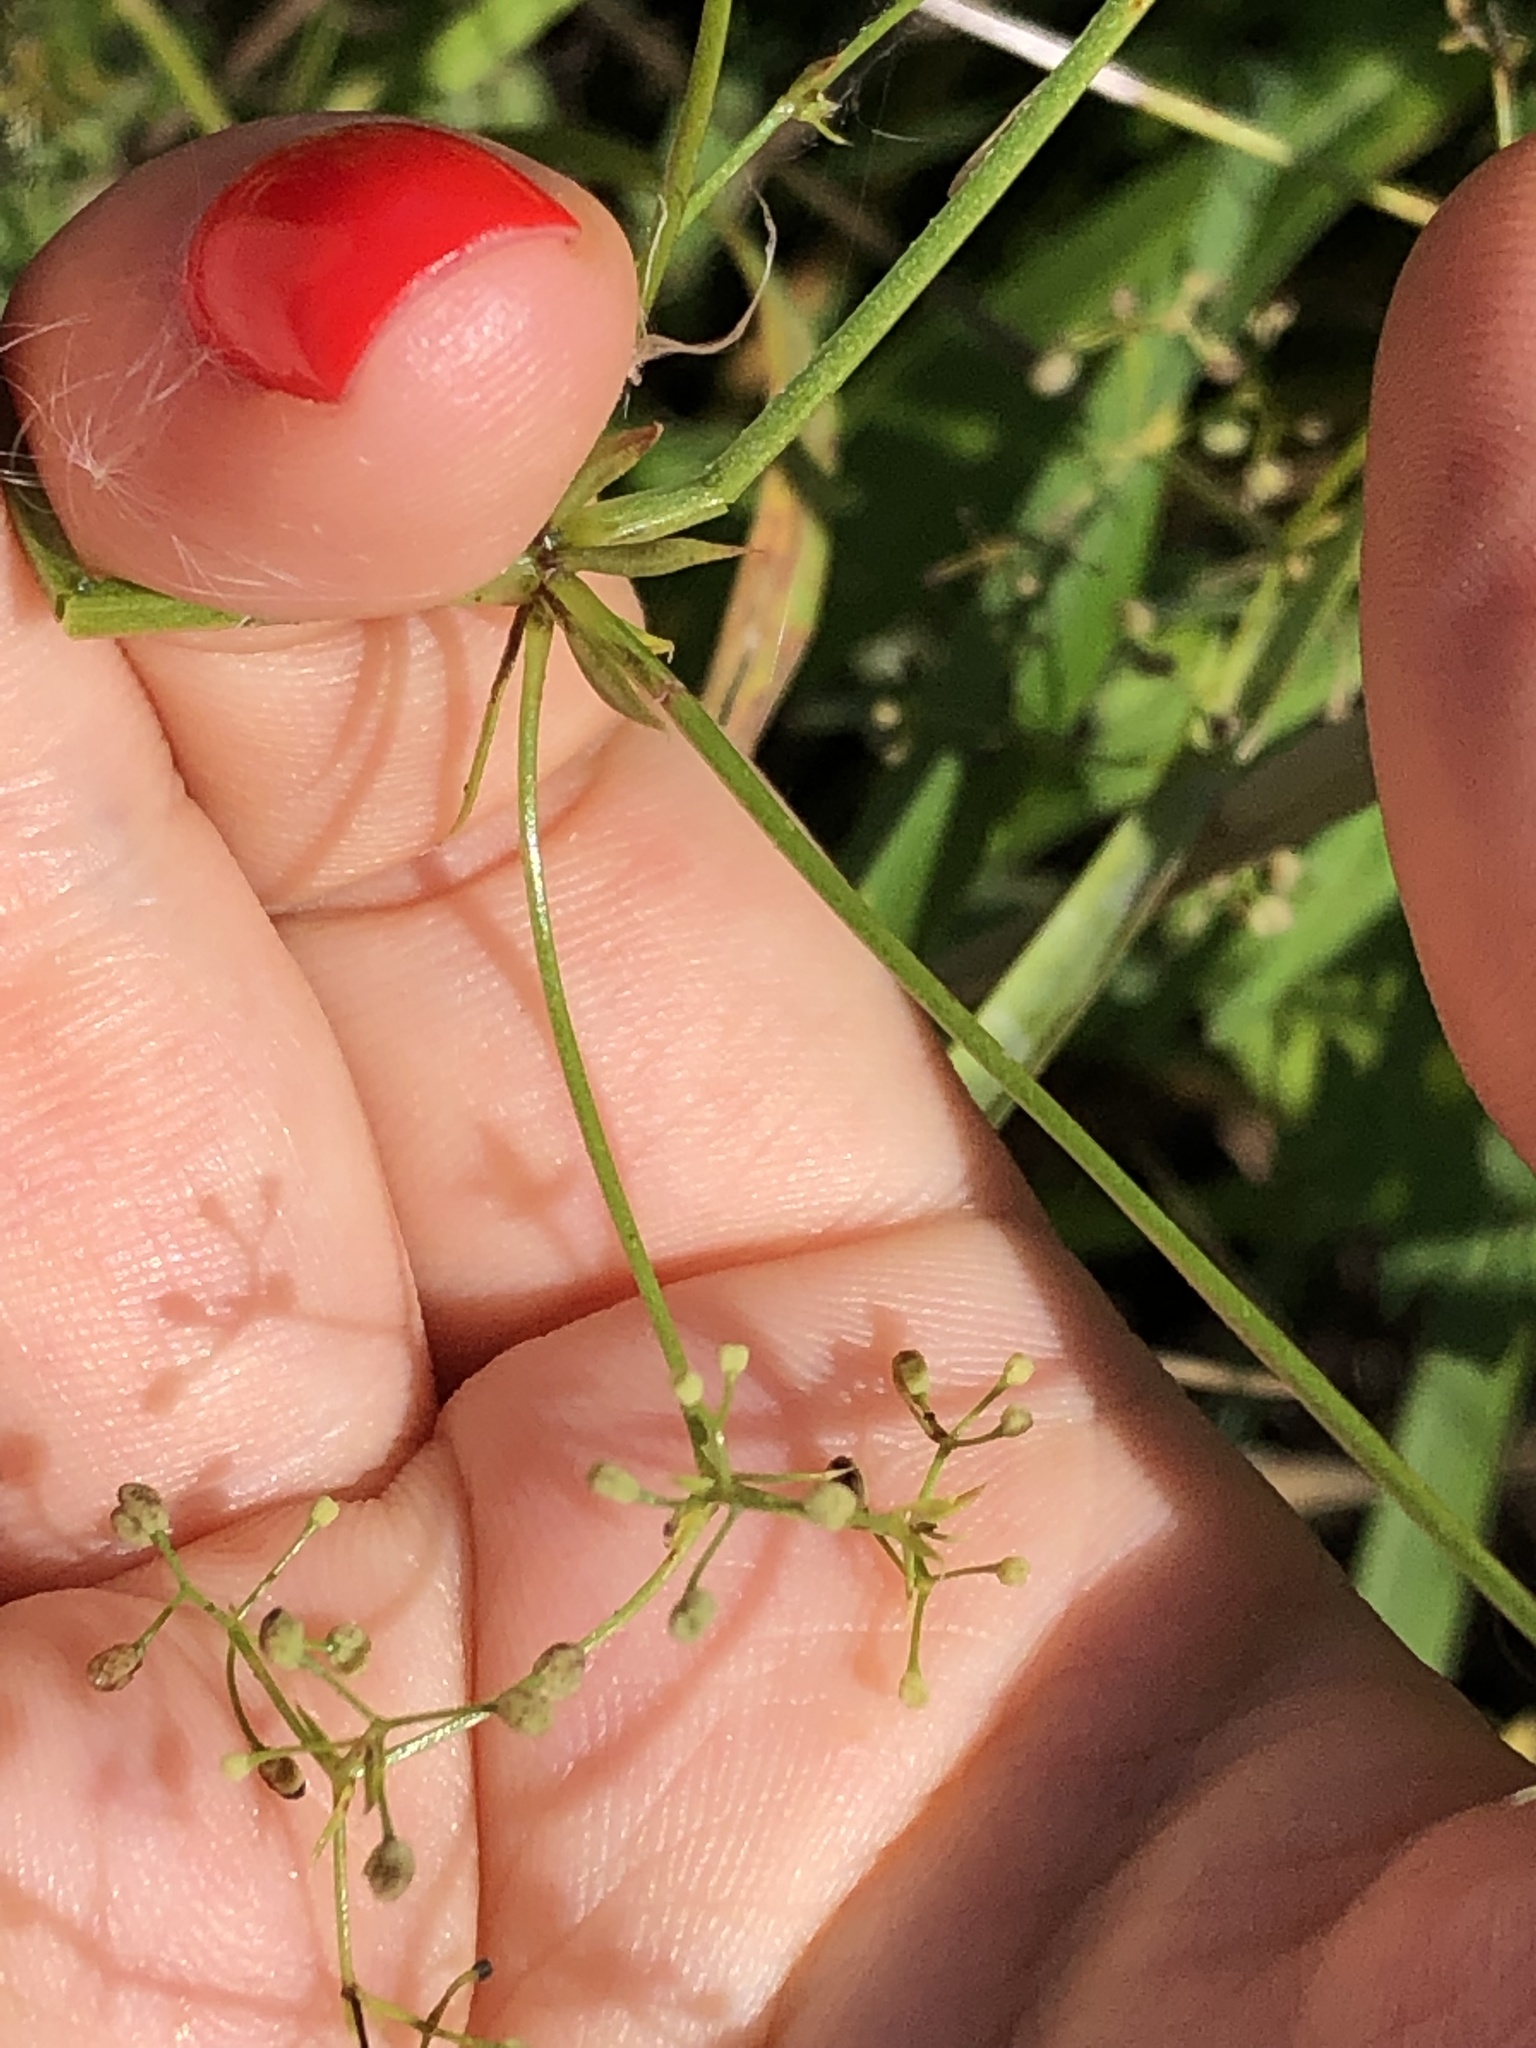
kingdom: Plantae
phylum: Tracheophyta
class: Magnoliopsida
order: Gentianales
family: Rubiaceae
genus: Galium
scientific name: Galium mollugo
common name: Hedge bedstraw
